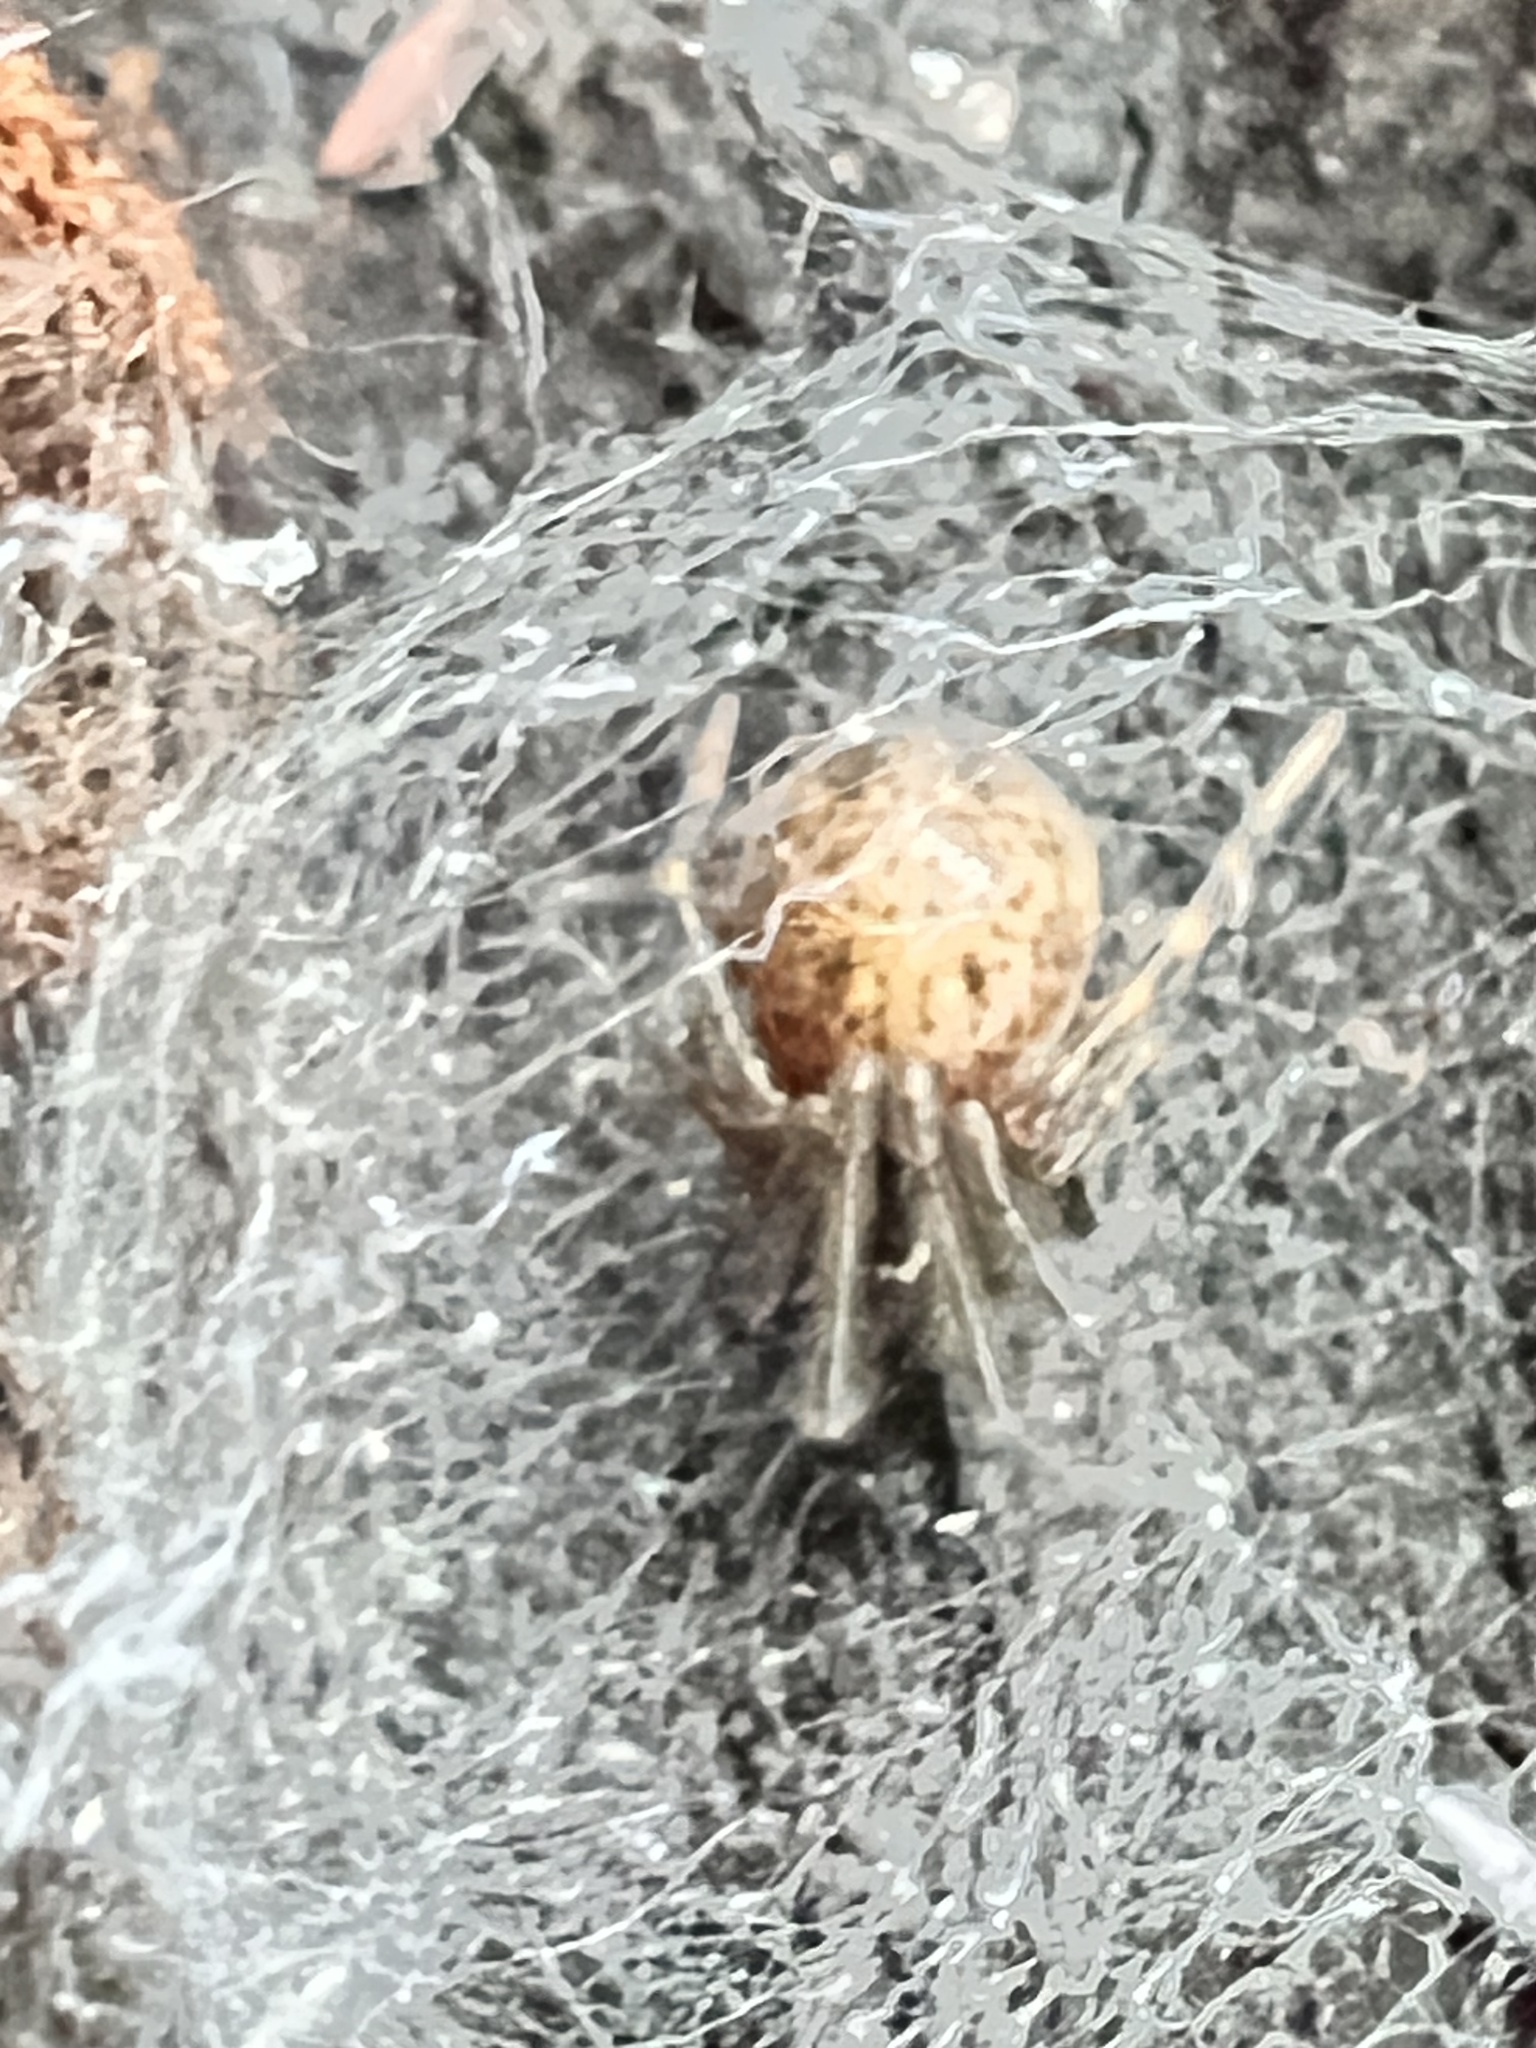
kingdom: Animalia
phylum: Arthropoda
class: Arachnida
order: Araneae
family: Megadictynidae
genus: Megadictyna
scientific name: Megadictyna thilenii
